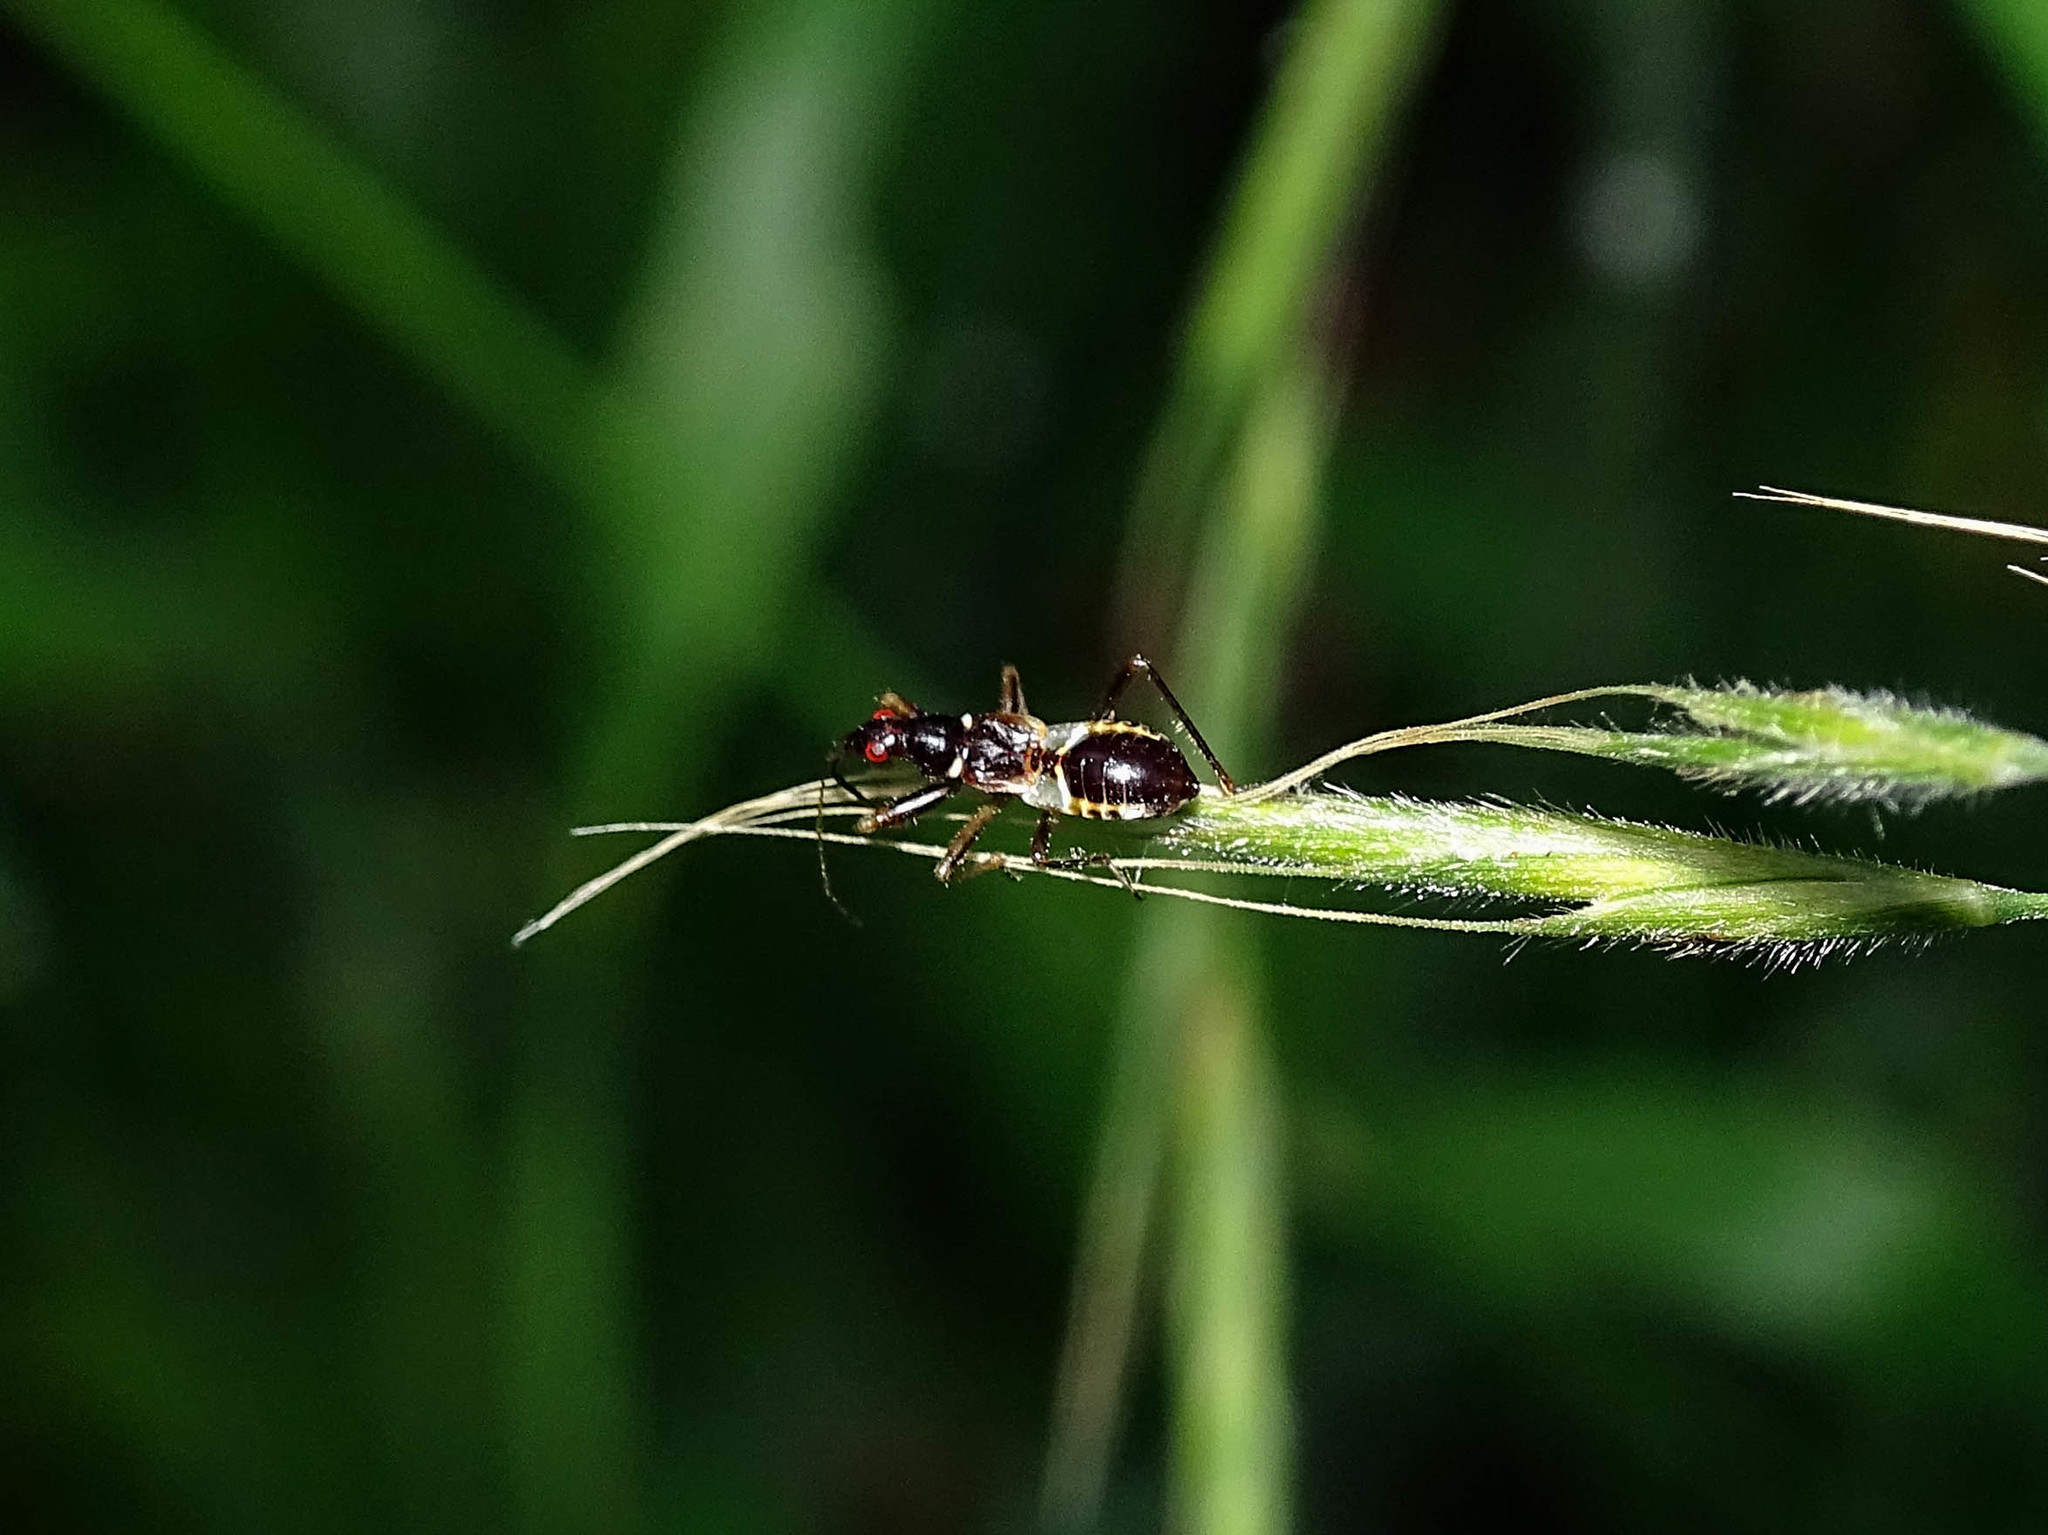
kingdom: Animalia
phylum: Arthropoda
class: Insecta
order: Hemiptera
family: Nabidae
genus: Himacerus
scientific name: Himacerus mirmicoides
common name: Ant damsel bug
